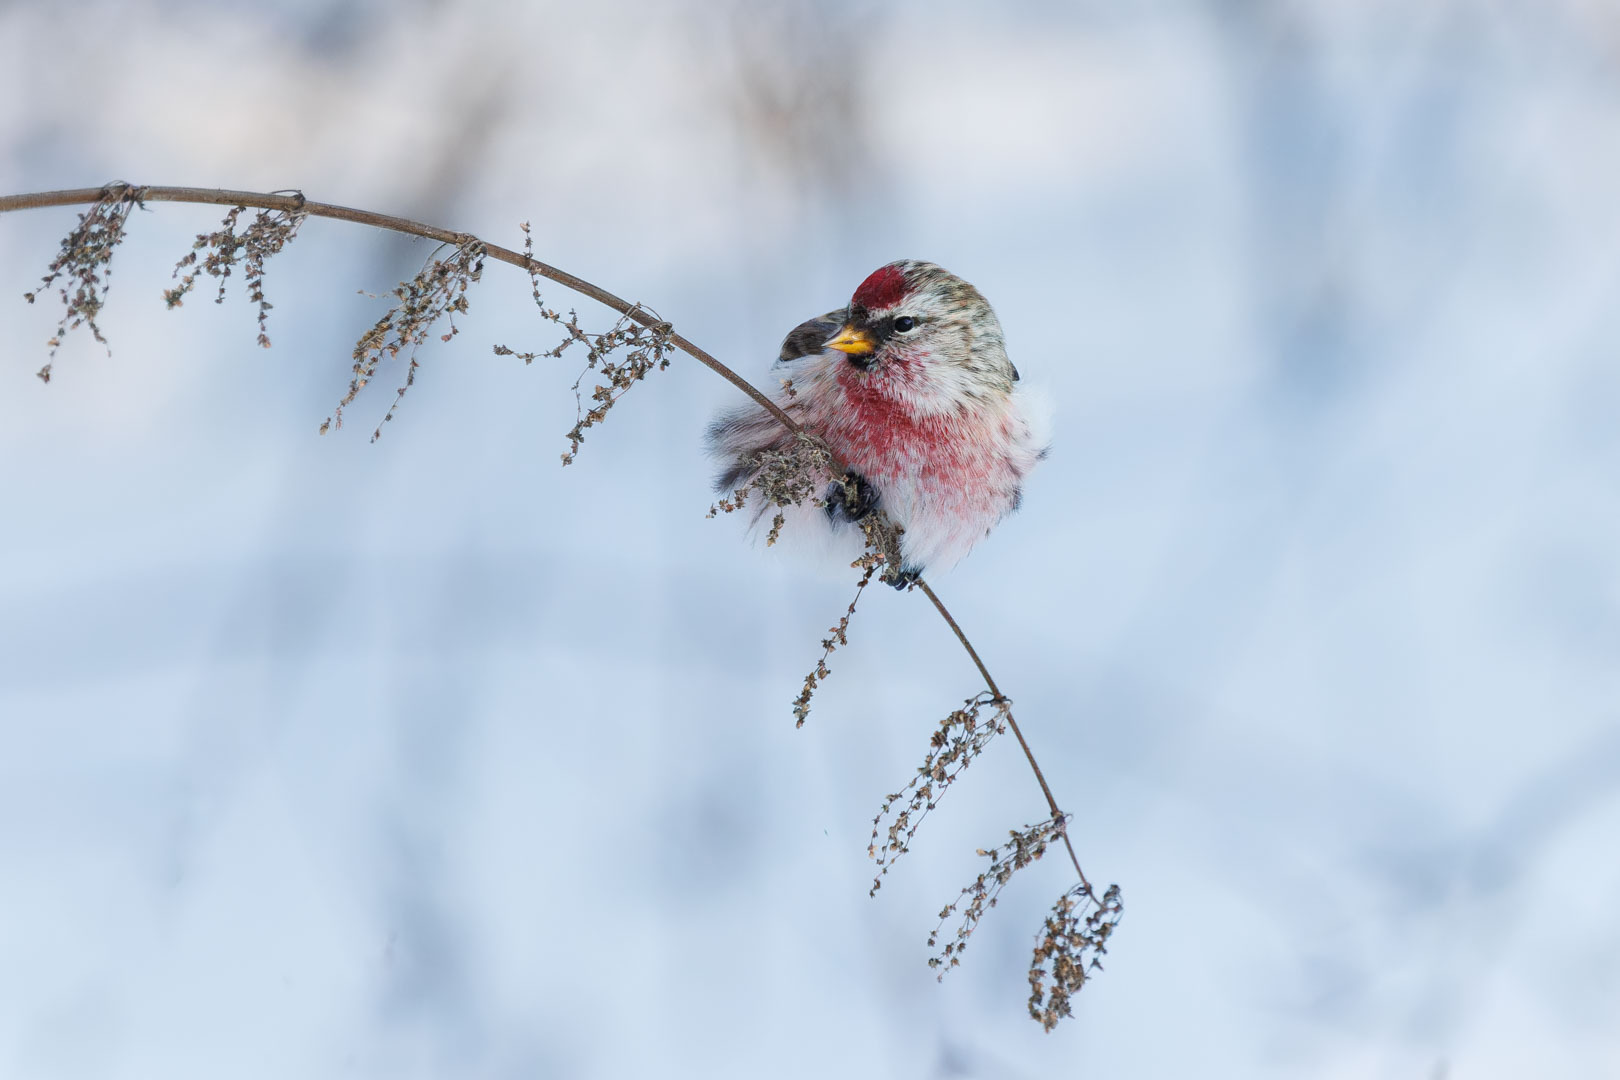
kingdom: Animalia
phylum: Chordata
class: Aves
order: Passeriformes
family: Fringillidae
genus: Acanthis
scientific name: Acanthis flammea
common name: Common redpoll
